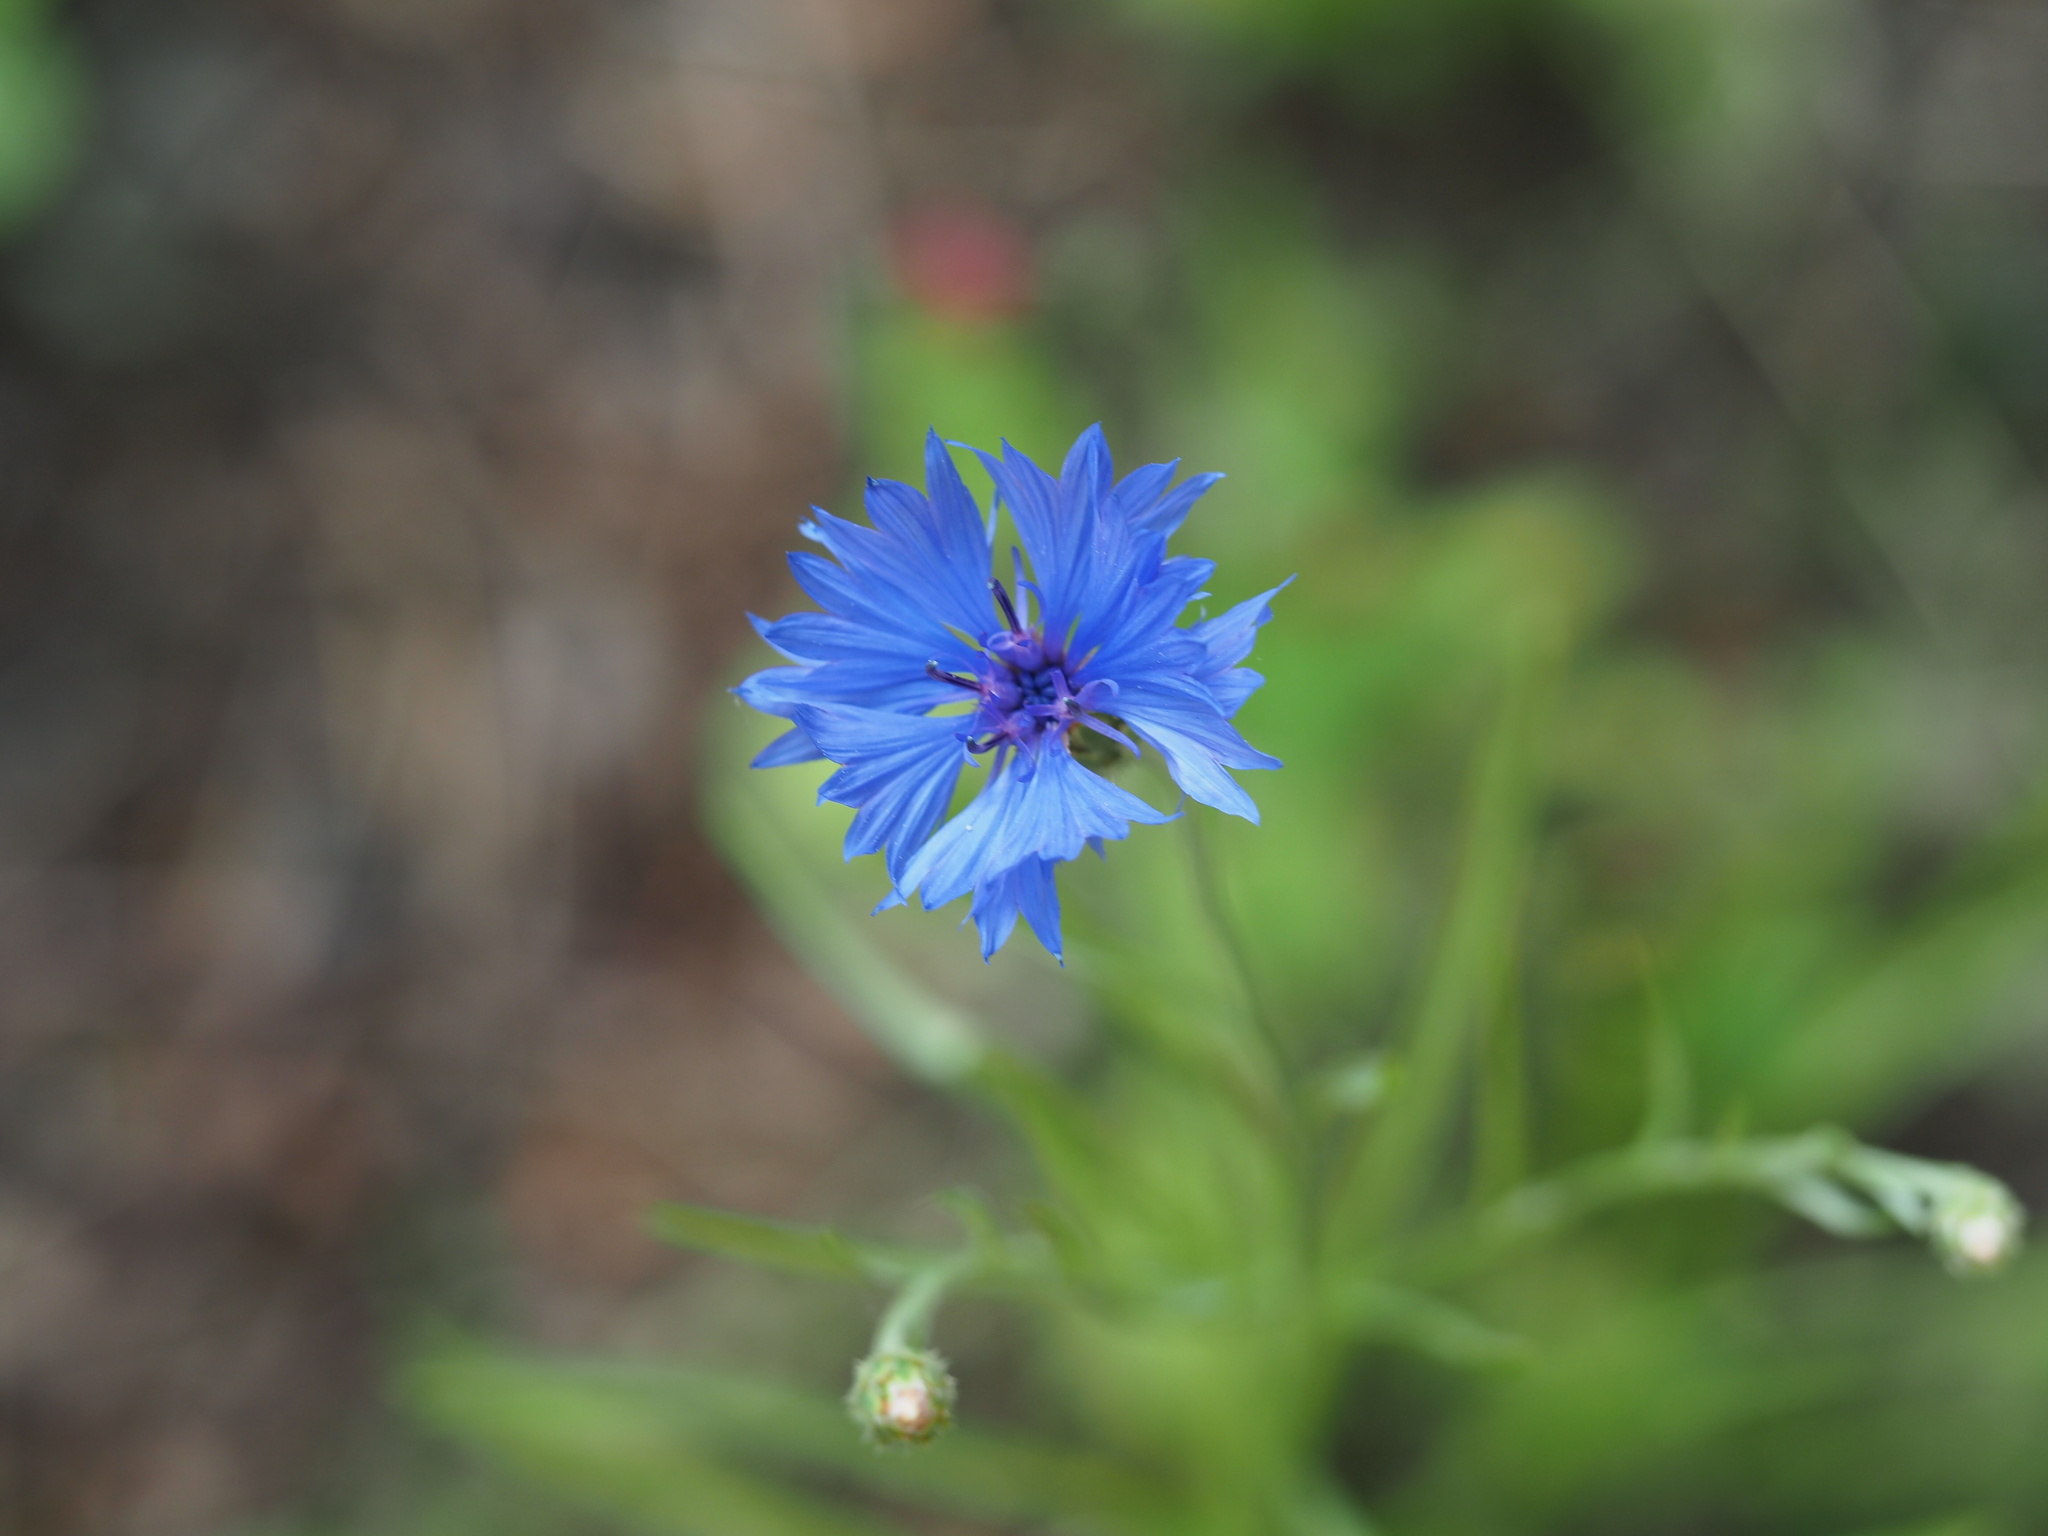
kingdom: Plantae
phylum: Tracheophyta
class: Magnoliopsida
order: Asterales
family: Asteraceae
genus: Centaurea
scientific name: Centaurea cyanus
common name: Cornflower
